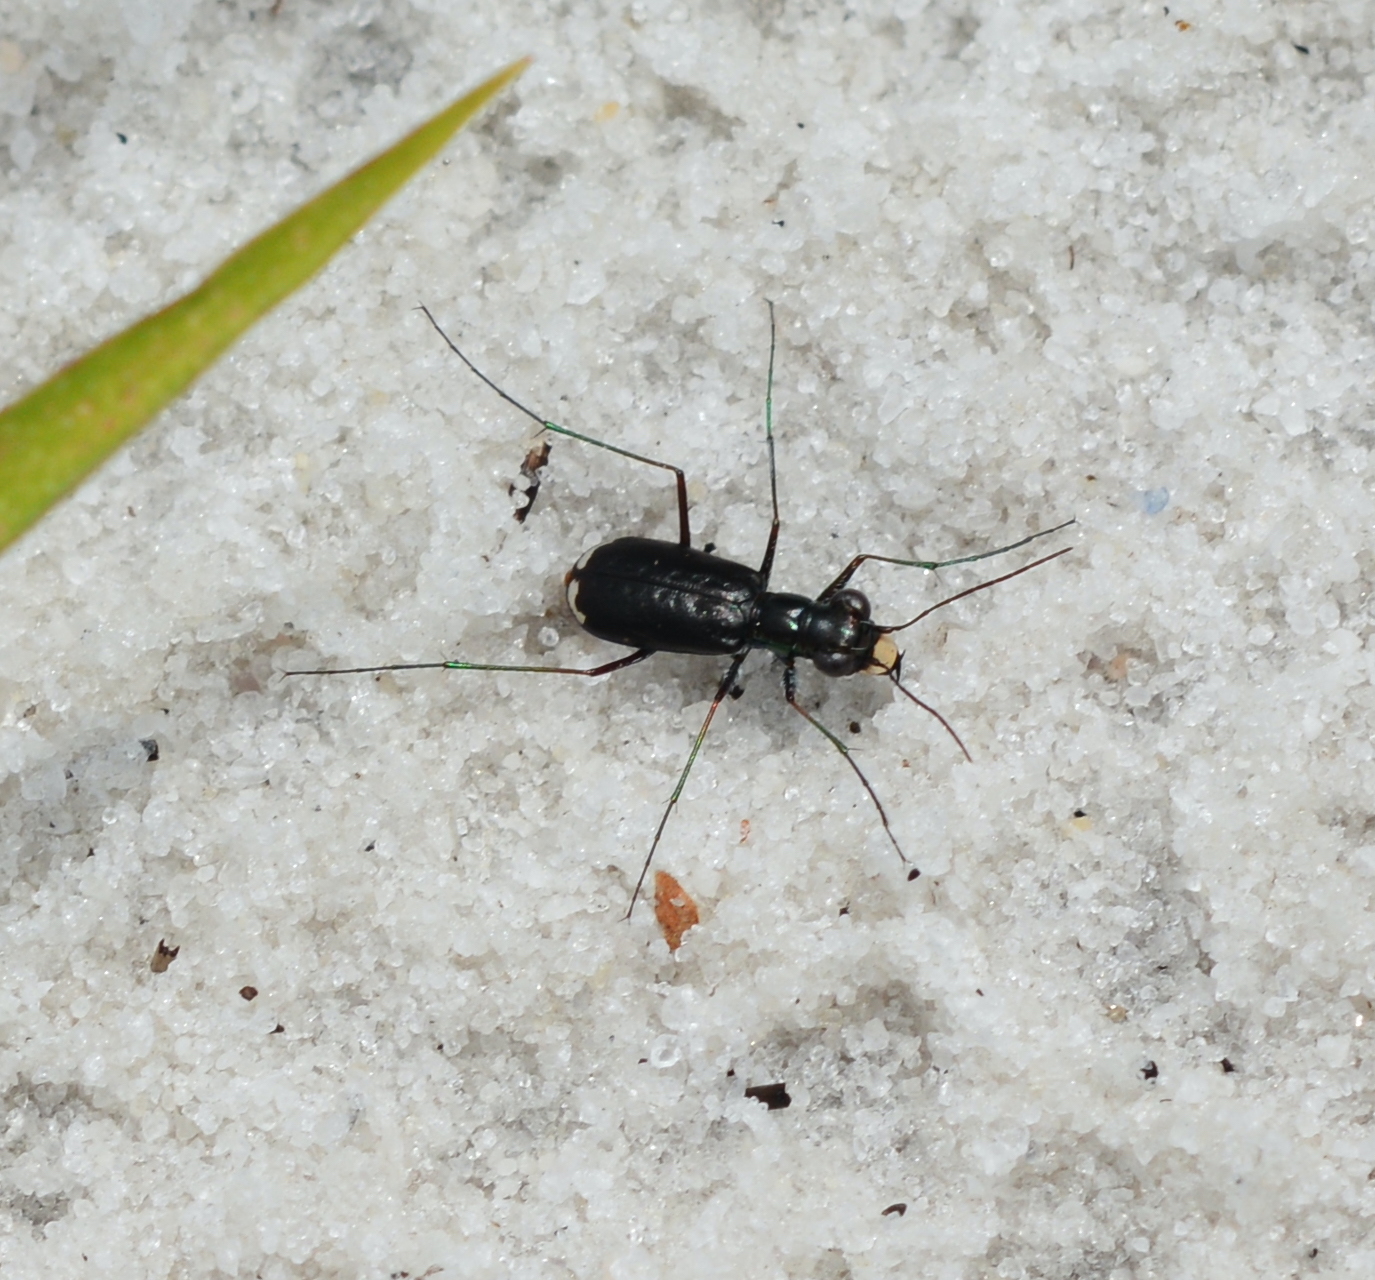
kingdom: Animalia
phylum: Arthropoda
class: Insecta
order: Coleoptera
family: Carabidae
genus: Cicindela
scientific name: Cicindela abdominalis
